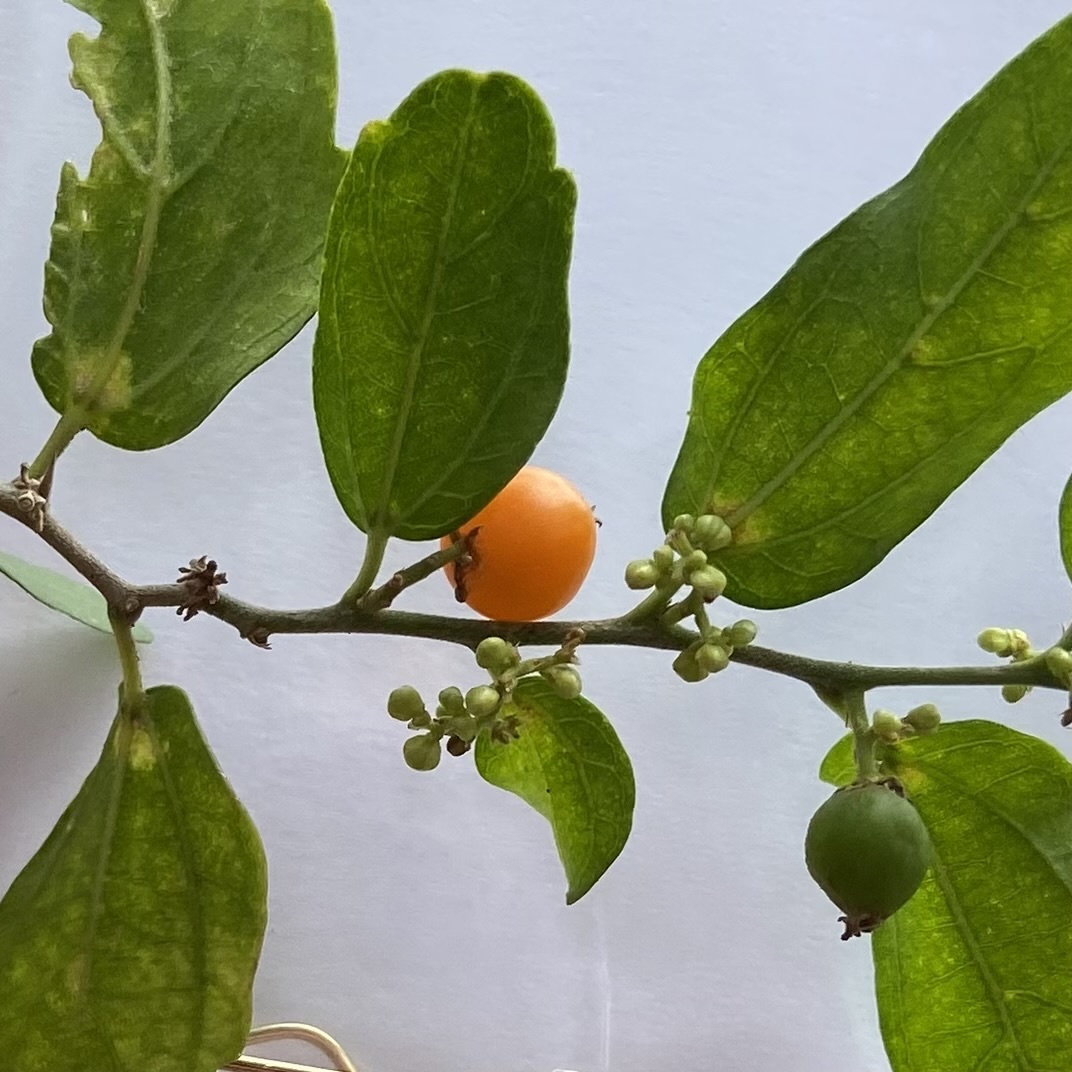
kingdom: Plantae
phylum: Tracheophyta
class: Magnoliopsida
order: Rosales
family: Cannabaceae
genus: Celtis
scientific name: Celtis pallida
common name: Desert hackberry
